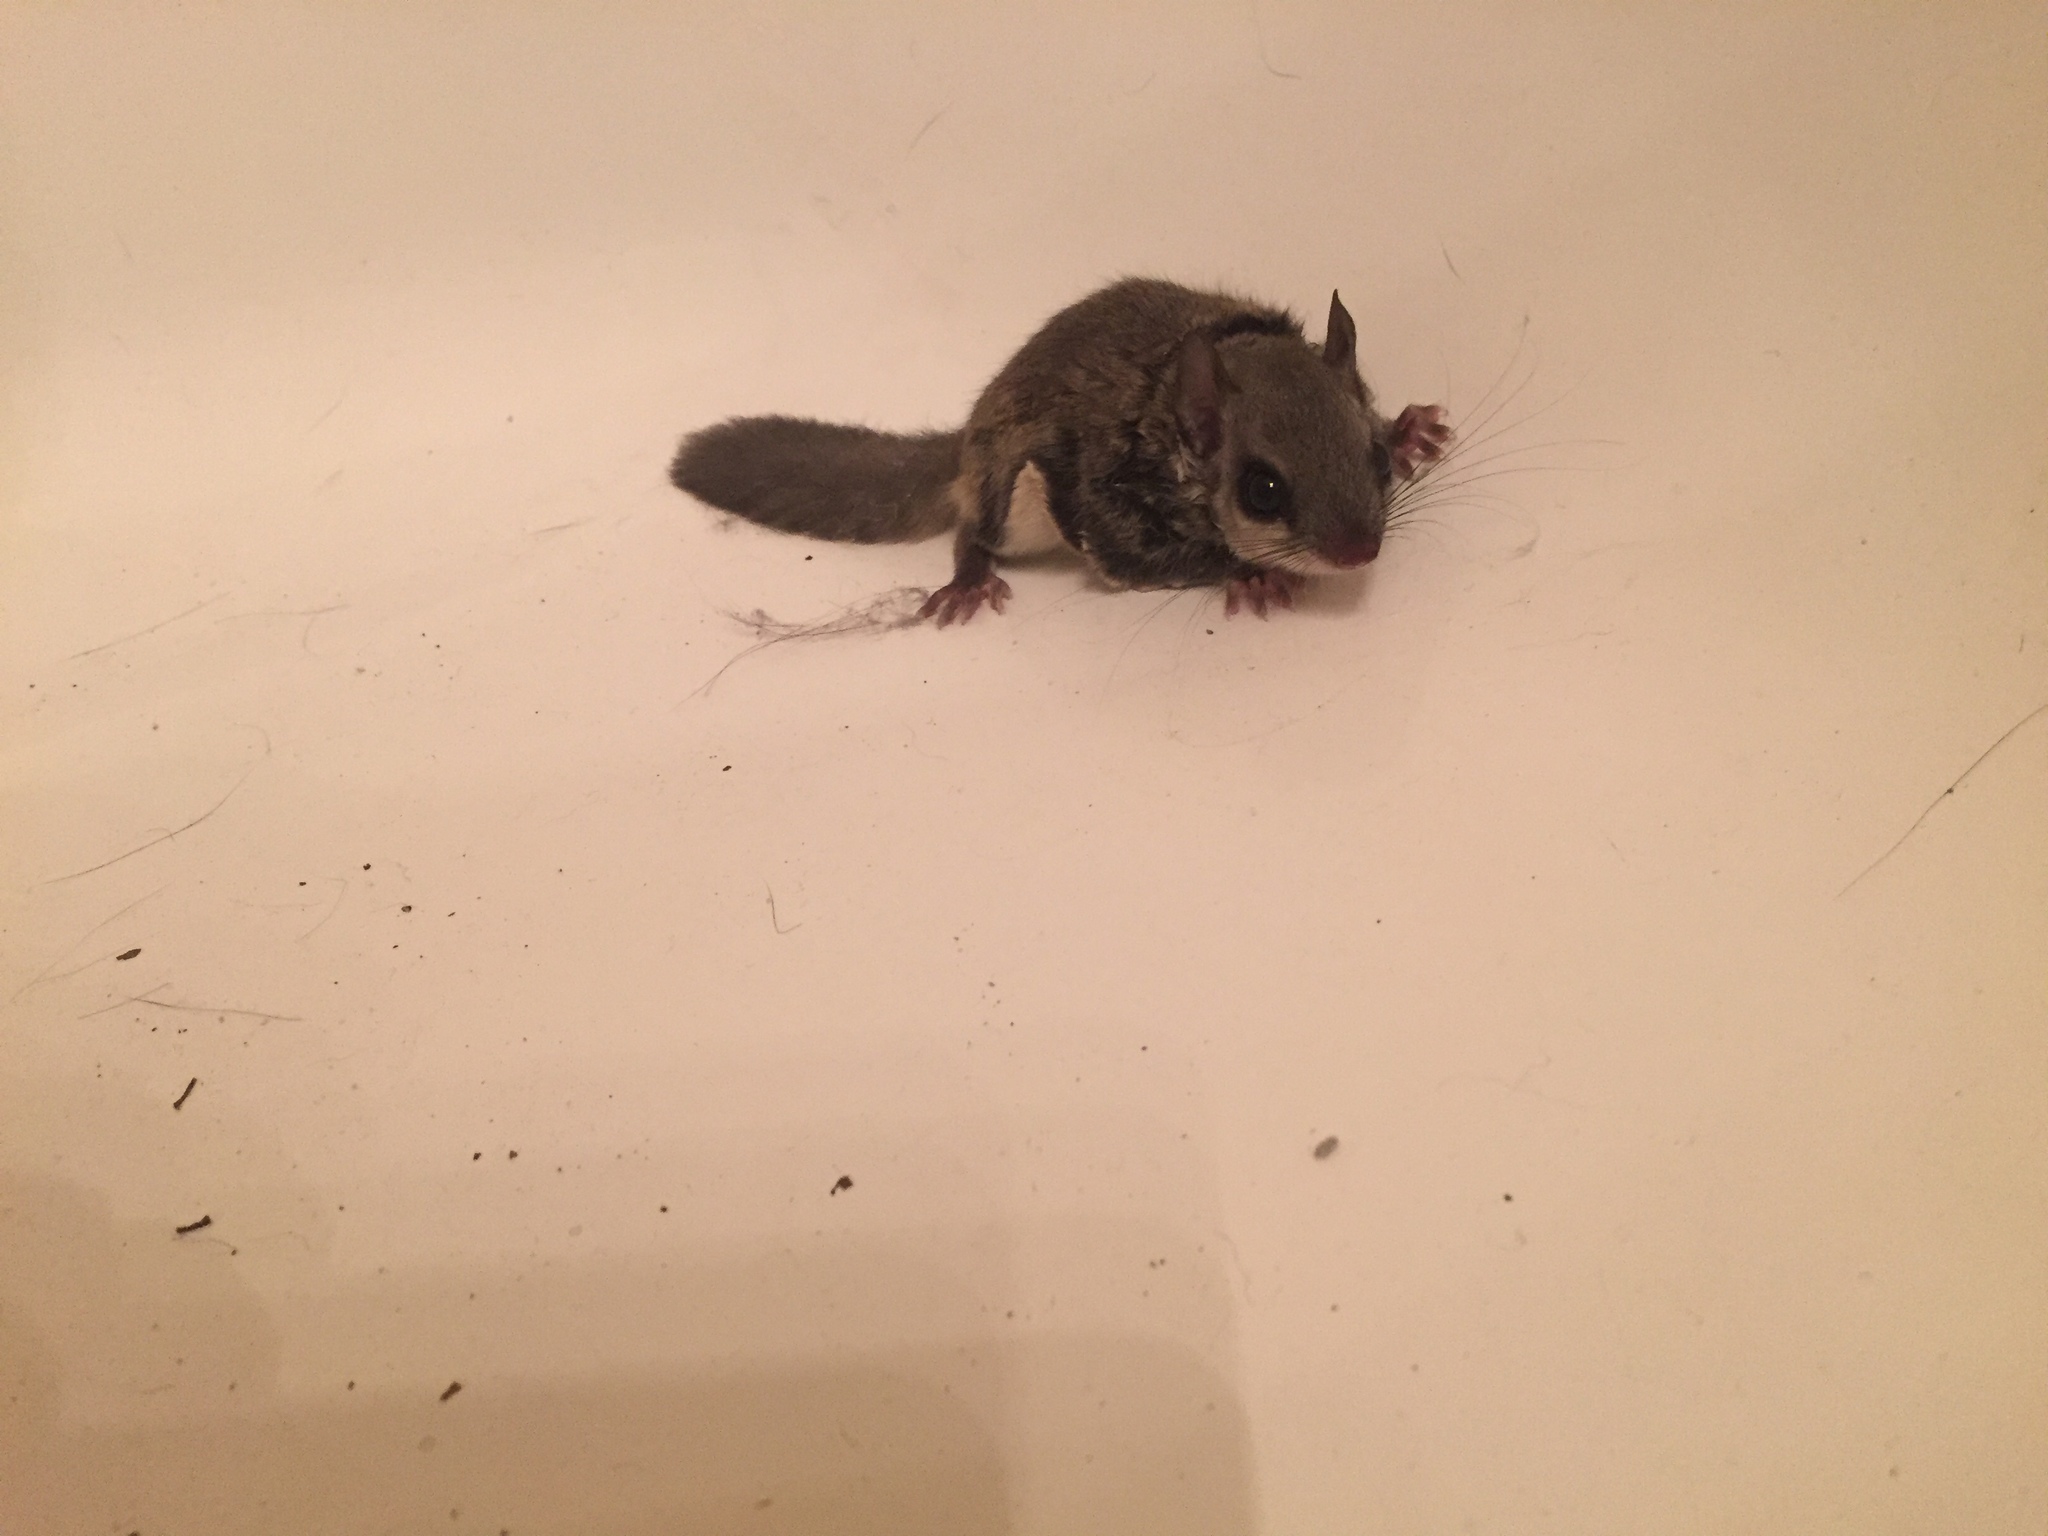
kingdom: Animalia
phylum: Chordata
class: Mammalia
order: Rodentia
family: Sciuridae
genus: Glaucomys
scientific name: Glaucomys volans
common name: Southern flying squirrel
